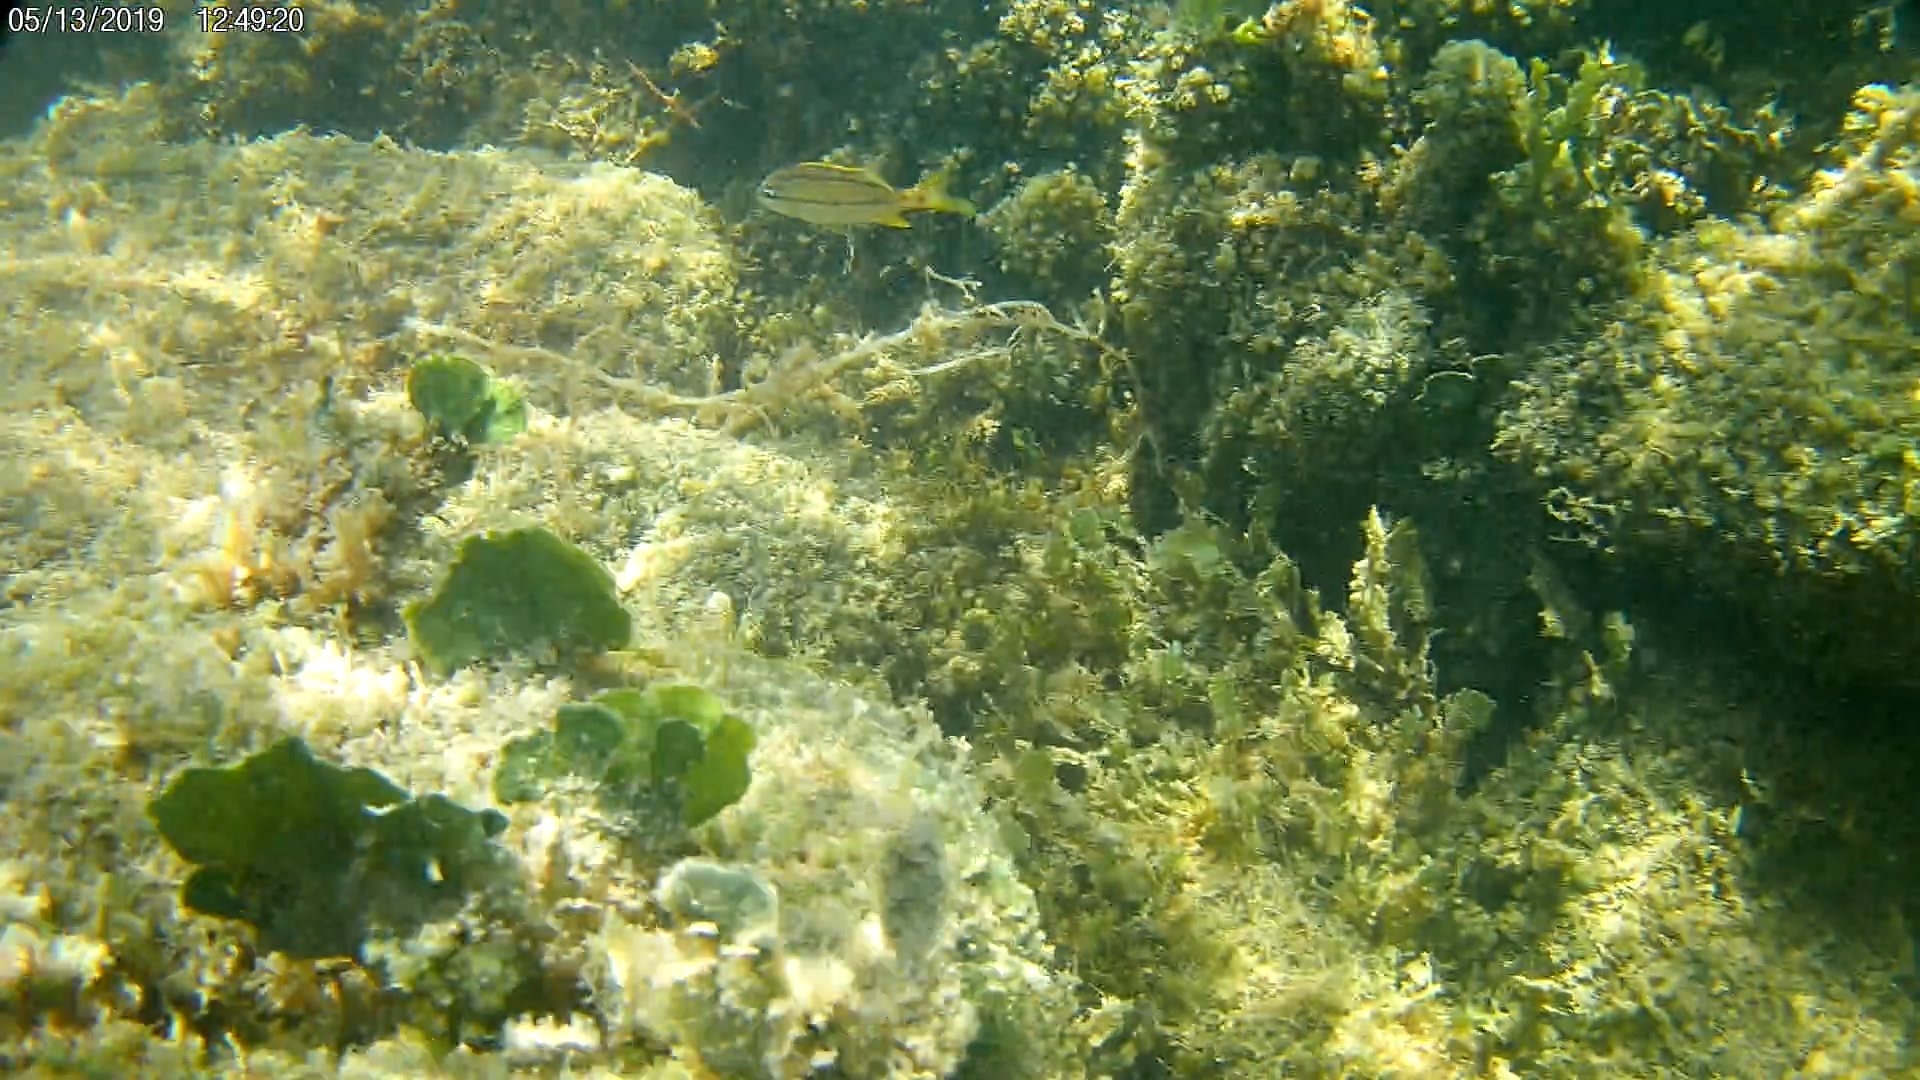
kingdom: Animalia
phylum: Chordata
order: Perciformes
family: Haemulidae
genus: Haemulon
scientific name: Haemulon flavolineatum
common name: French grunt
